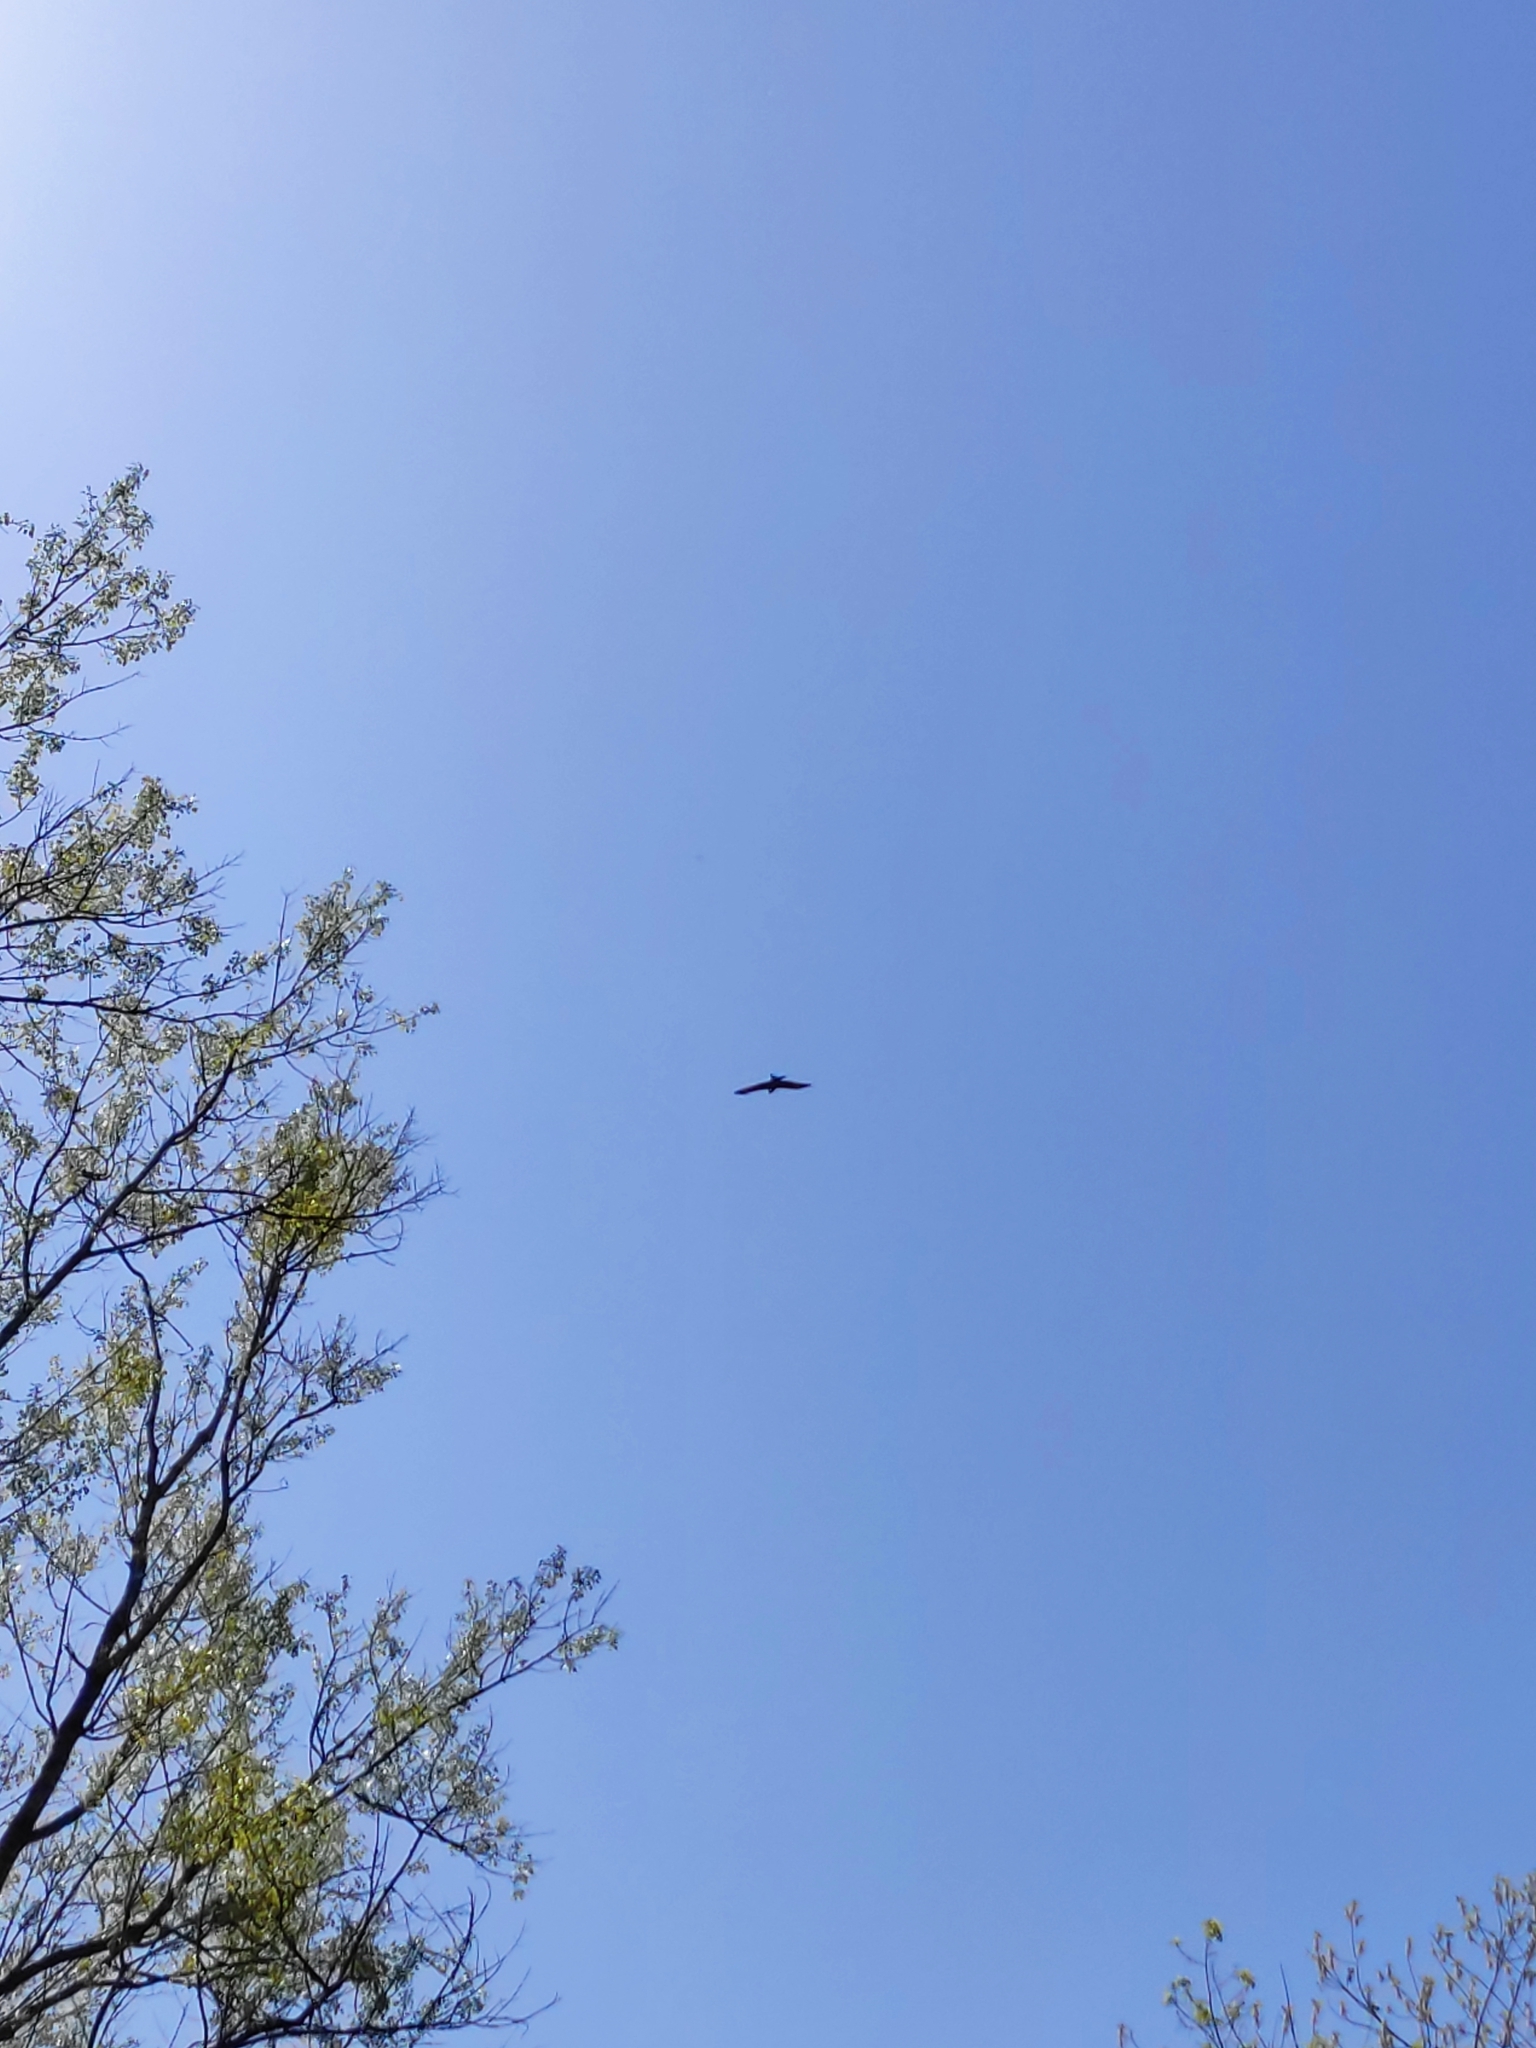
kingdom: Animalia
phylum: Chordata
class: Aves
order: Accipitriformes
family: Accipitridae
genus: Milvus
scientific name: Milvus migrans
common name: Black kite
